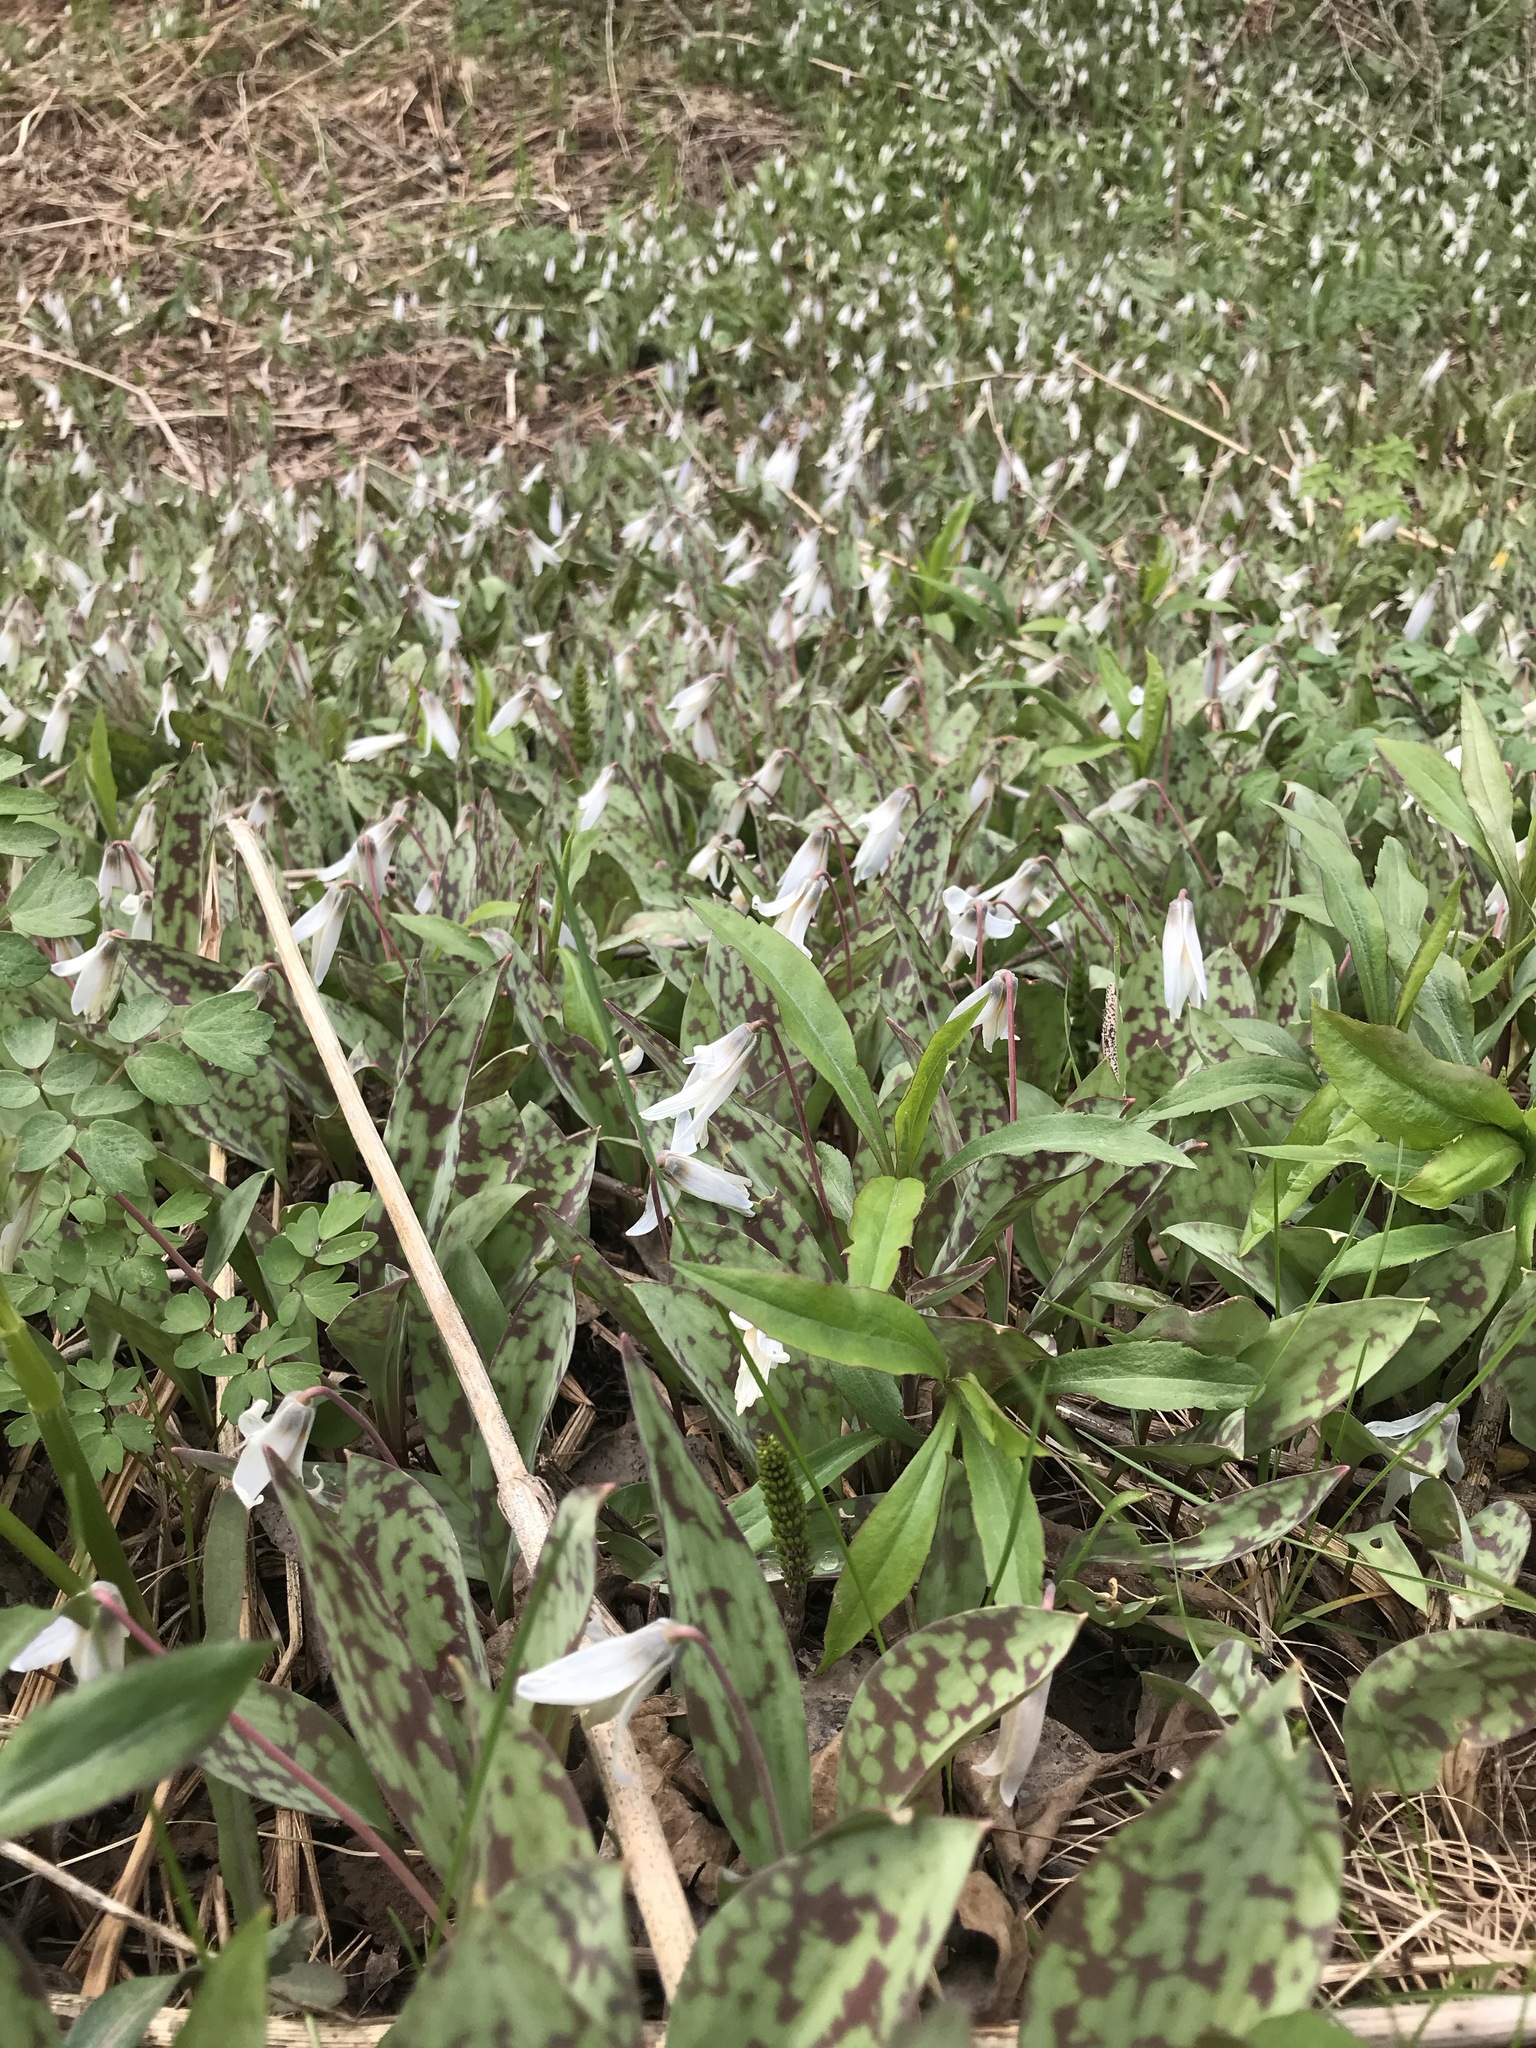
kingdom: Plantae
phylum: Tracheophyta
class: Liliopsida
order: Liliales
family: Liliaceae
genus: Erythronium
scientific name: Erythronium albidum
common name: White trout-lily
